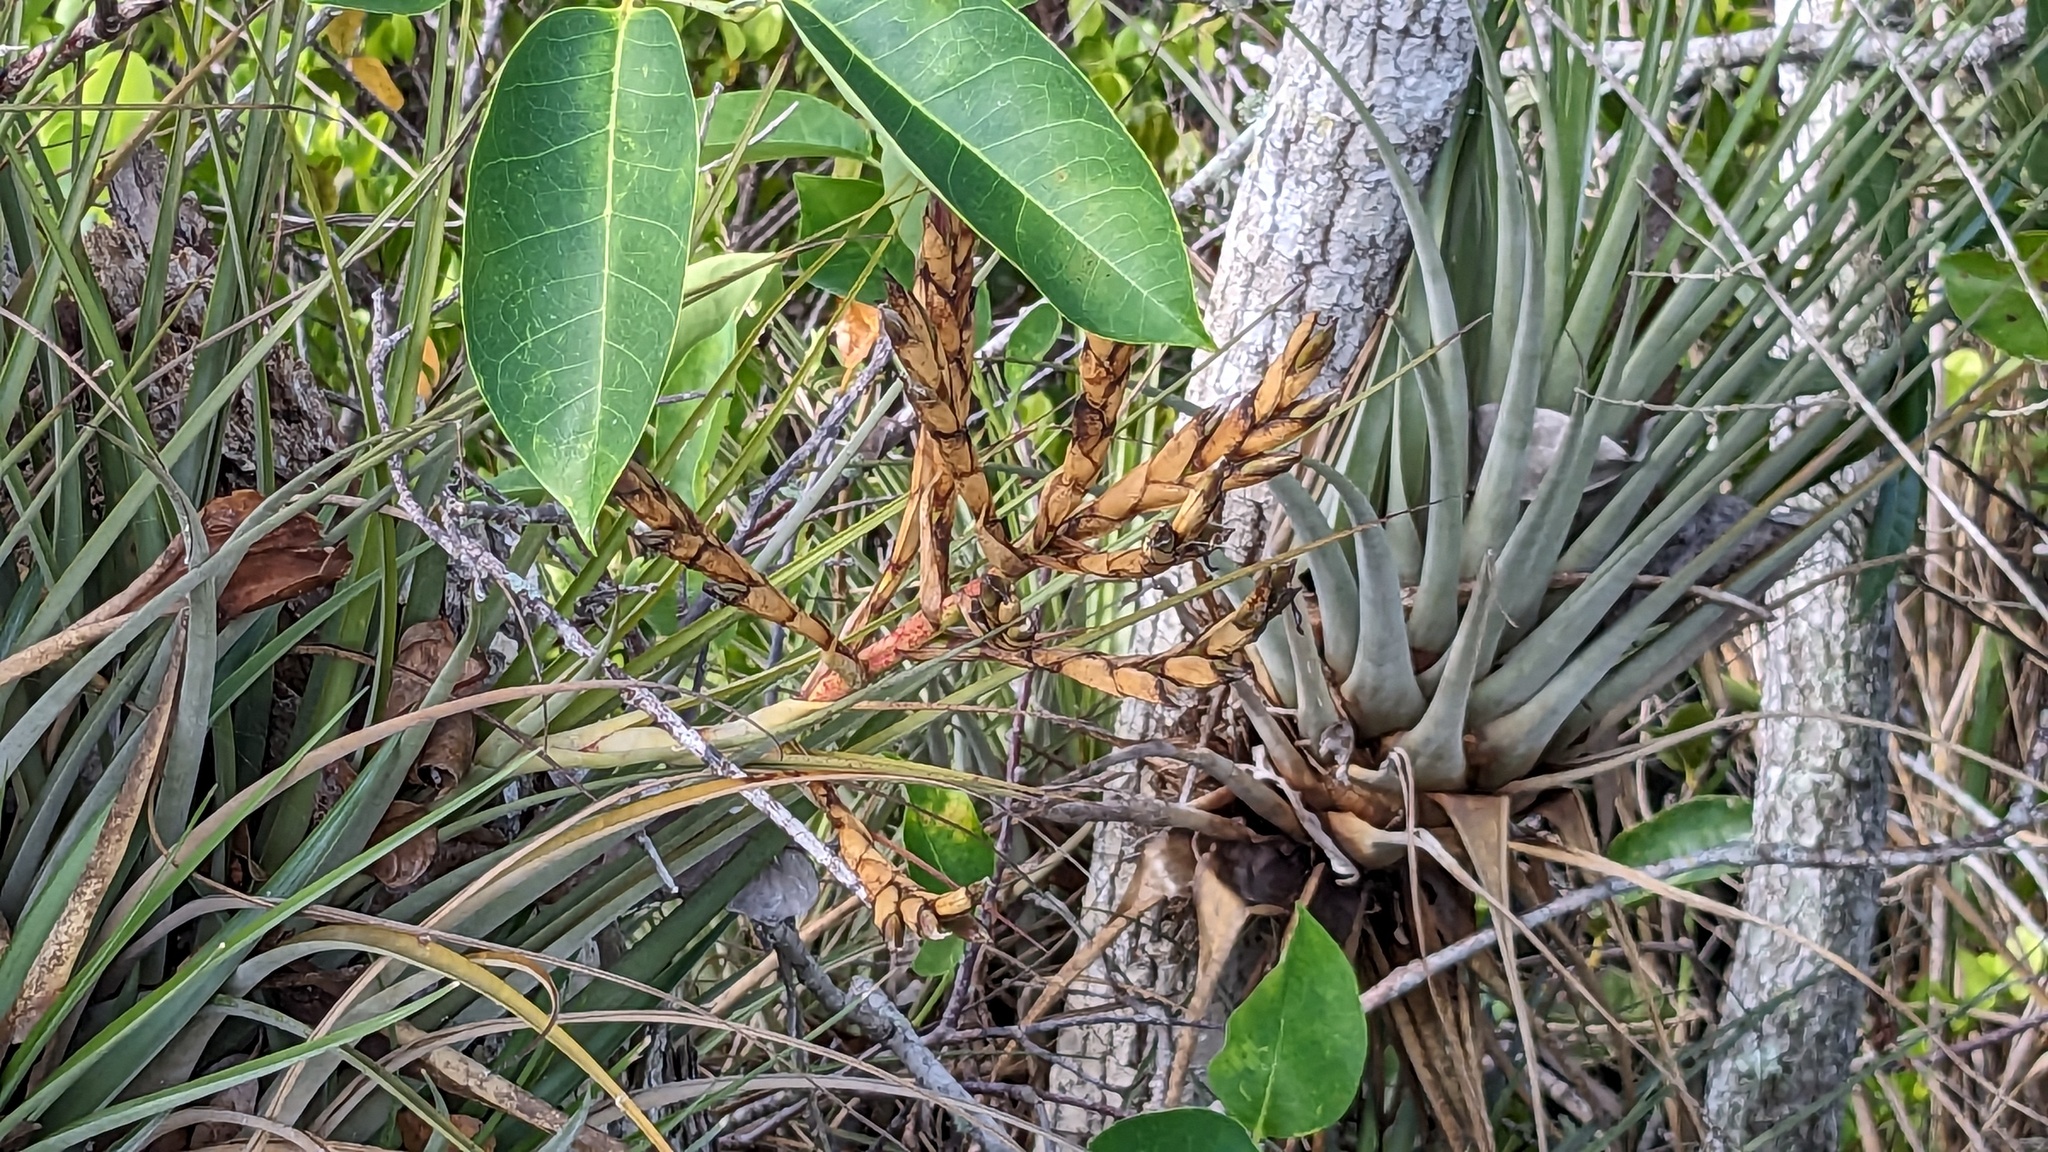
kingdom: Plantae
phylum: Tracheophyta
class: Liliopsida
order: Poales
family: Bromeliaceae
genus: Tillandsia
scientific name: Tillandsia fasciculata
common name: Giant airplant
